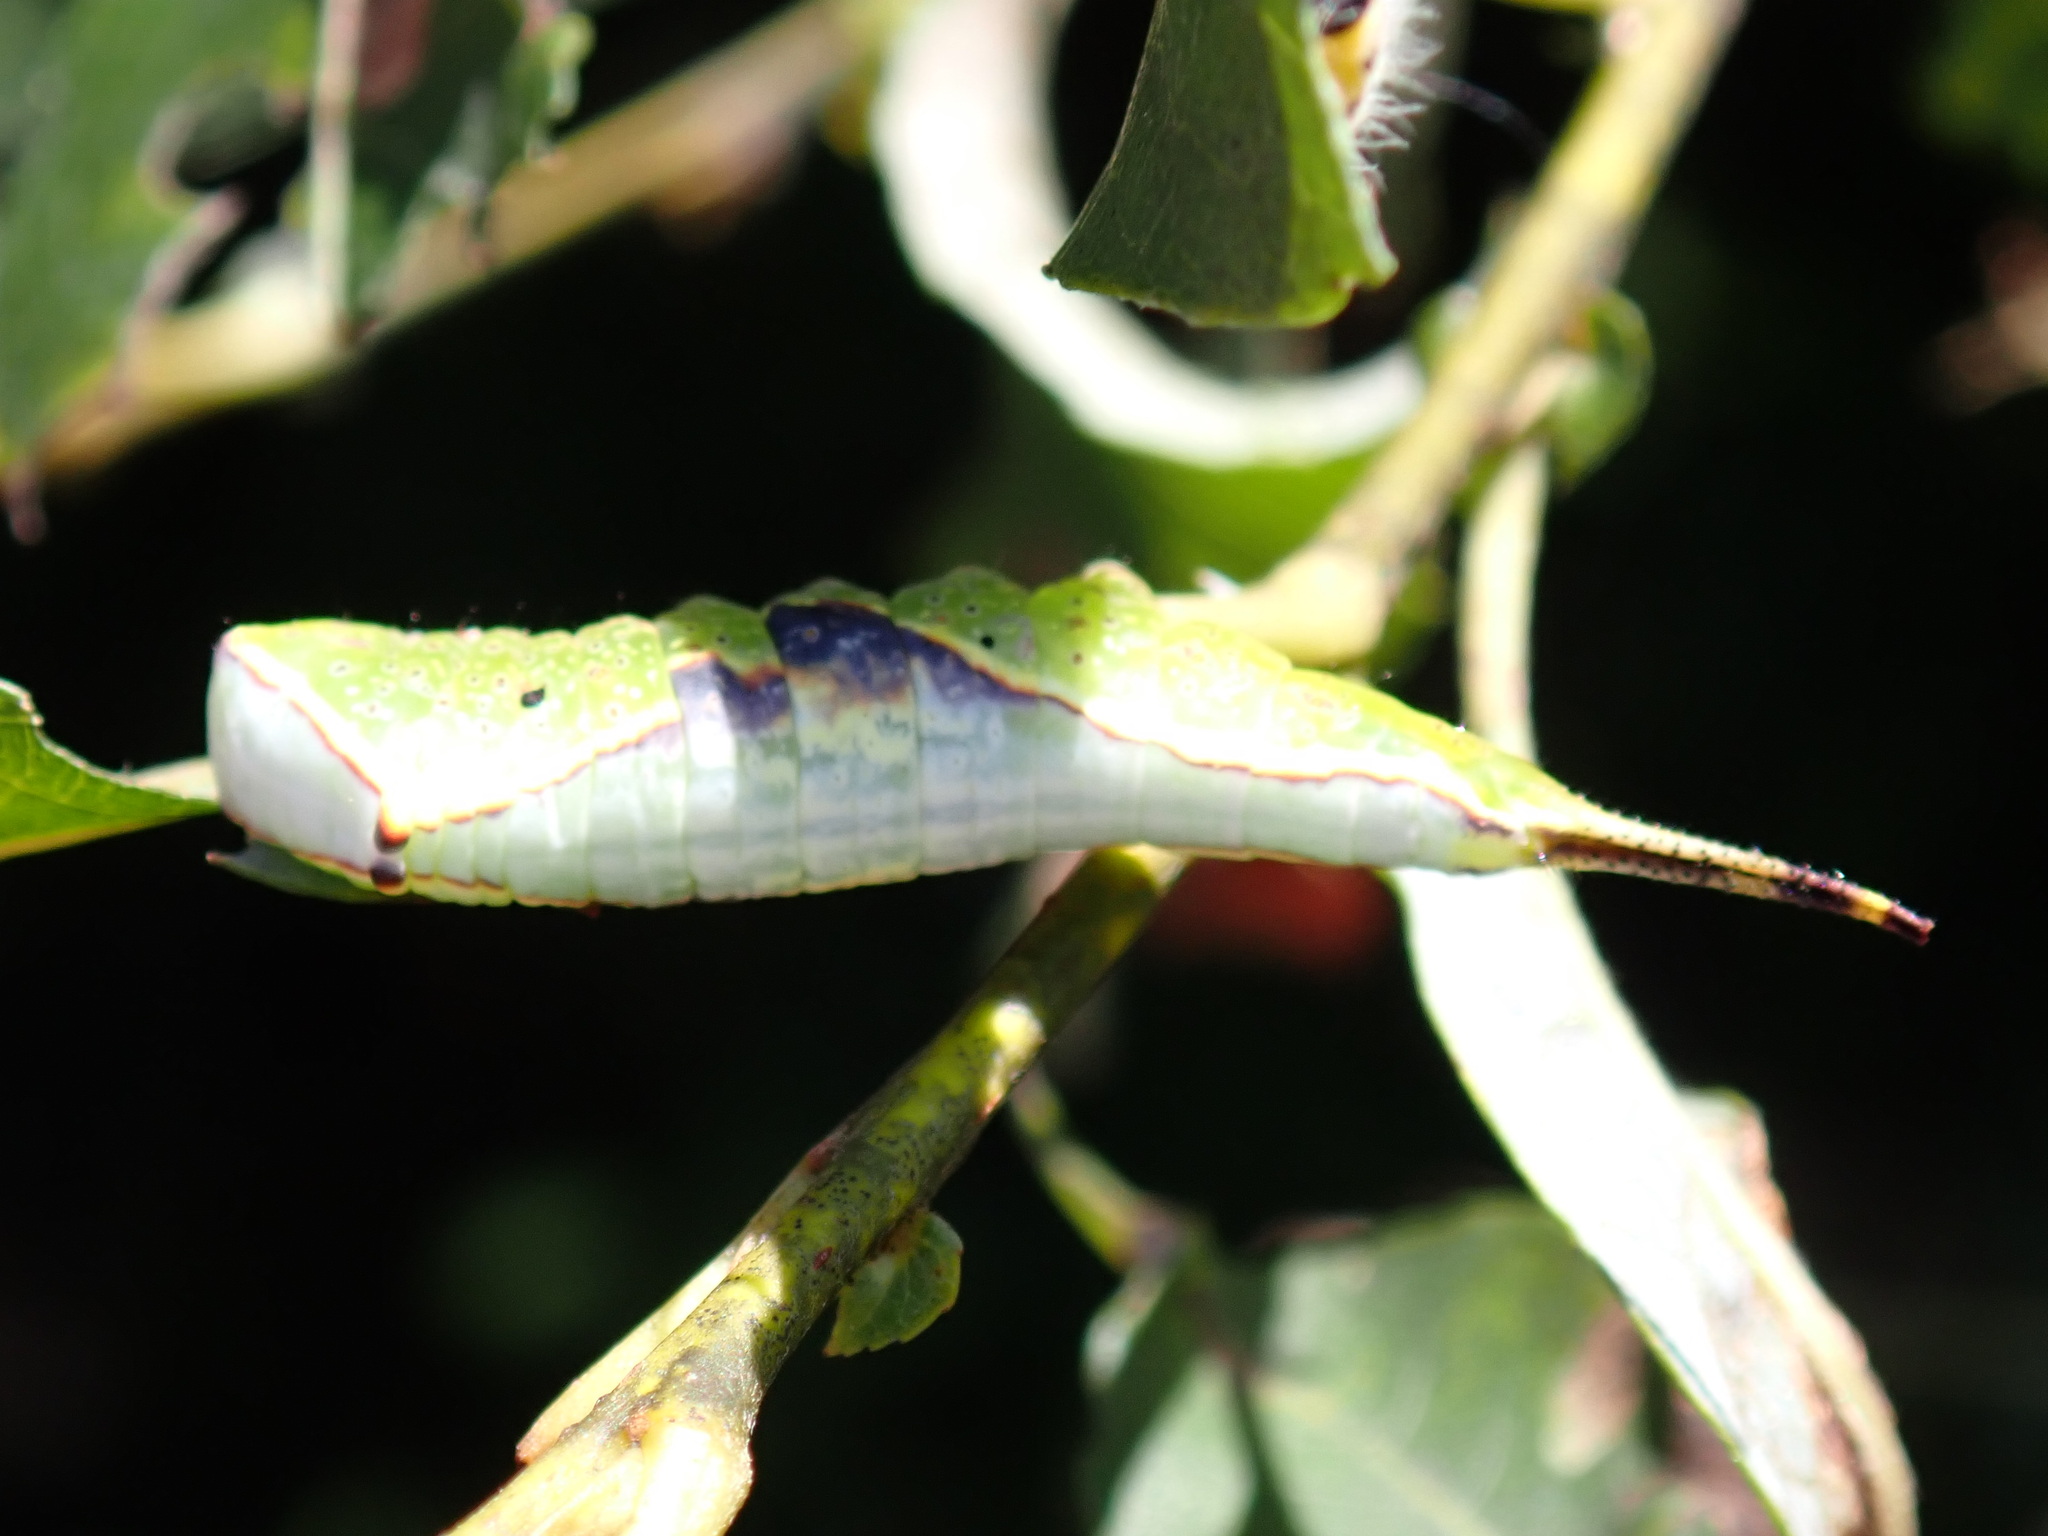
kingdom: Animalia
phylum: Arthropoda
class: Insecta
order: Lepidoptera
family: Notodontidae
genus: Furcula
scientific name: Furcula occidentalis
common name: Western furcula moth
